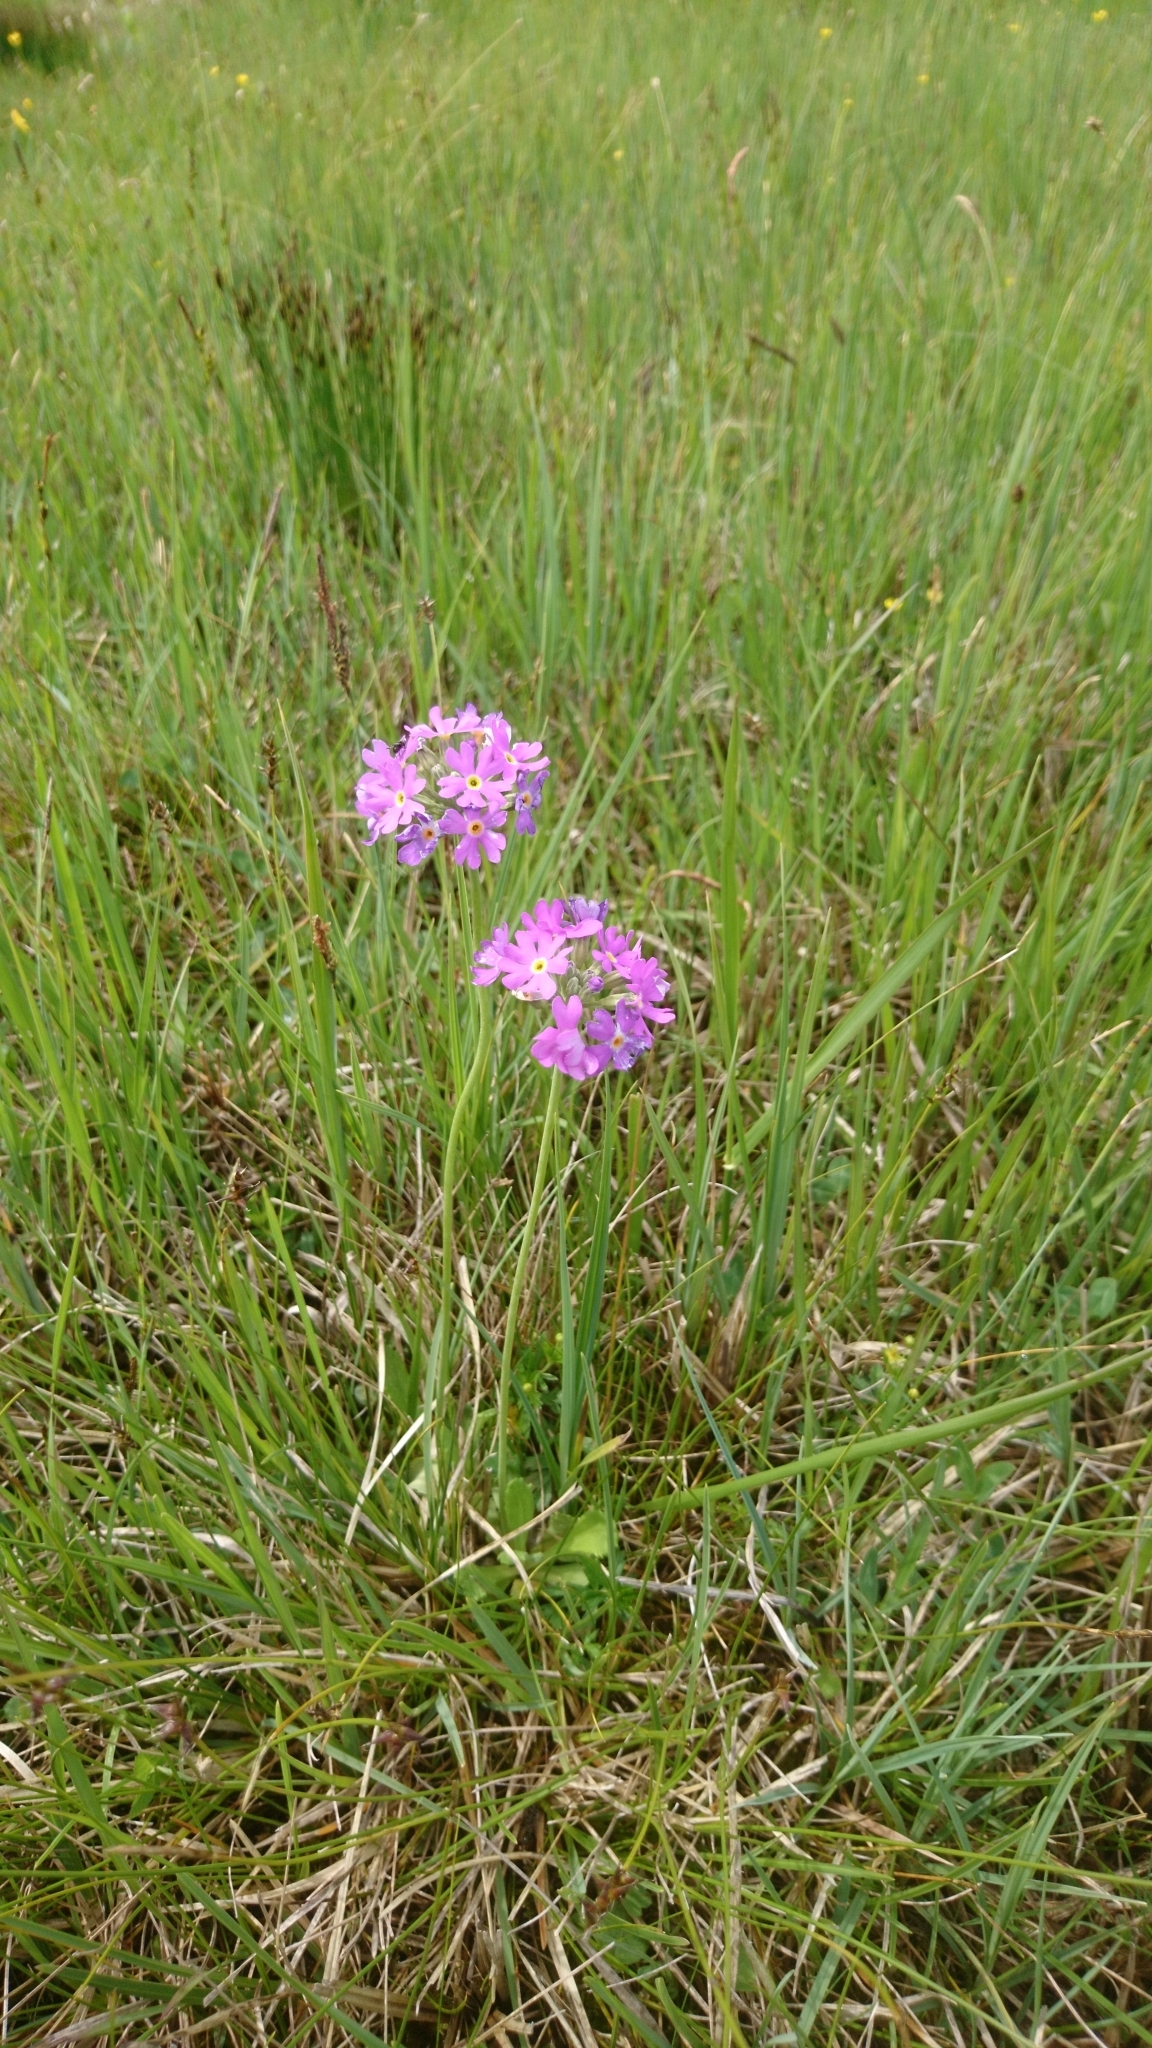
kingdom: Plantae
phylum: Tracheophyta
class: Magnoliopsida
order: Ericales
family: Primulaceae
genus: Primula
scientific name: Primula farinosa
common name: Bird's-eye primrose
